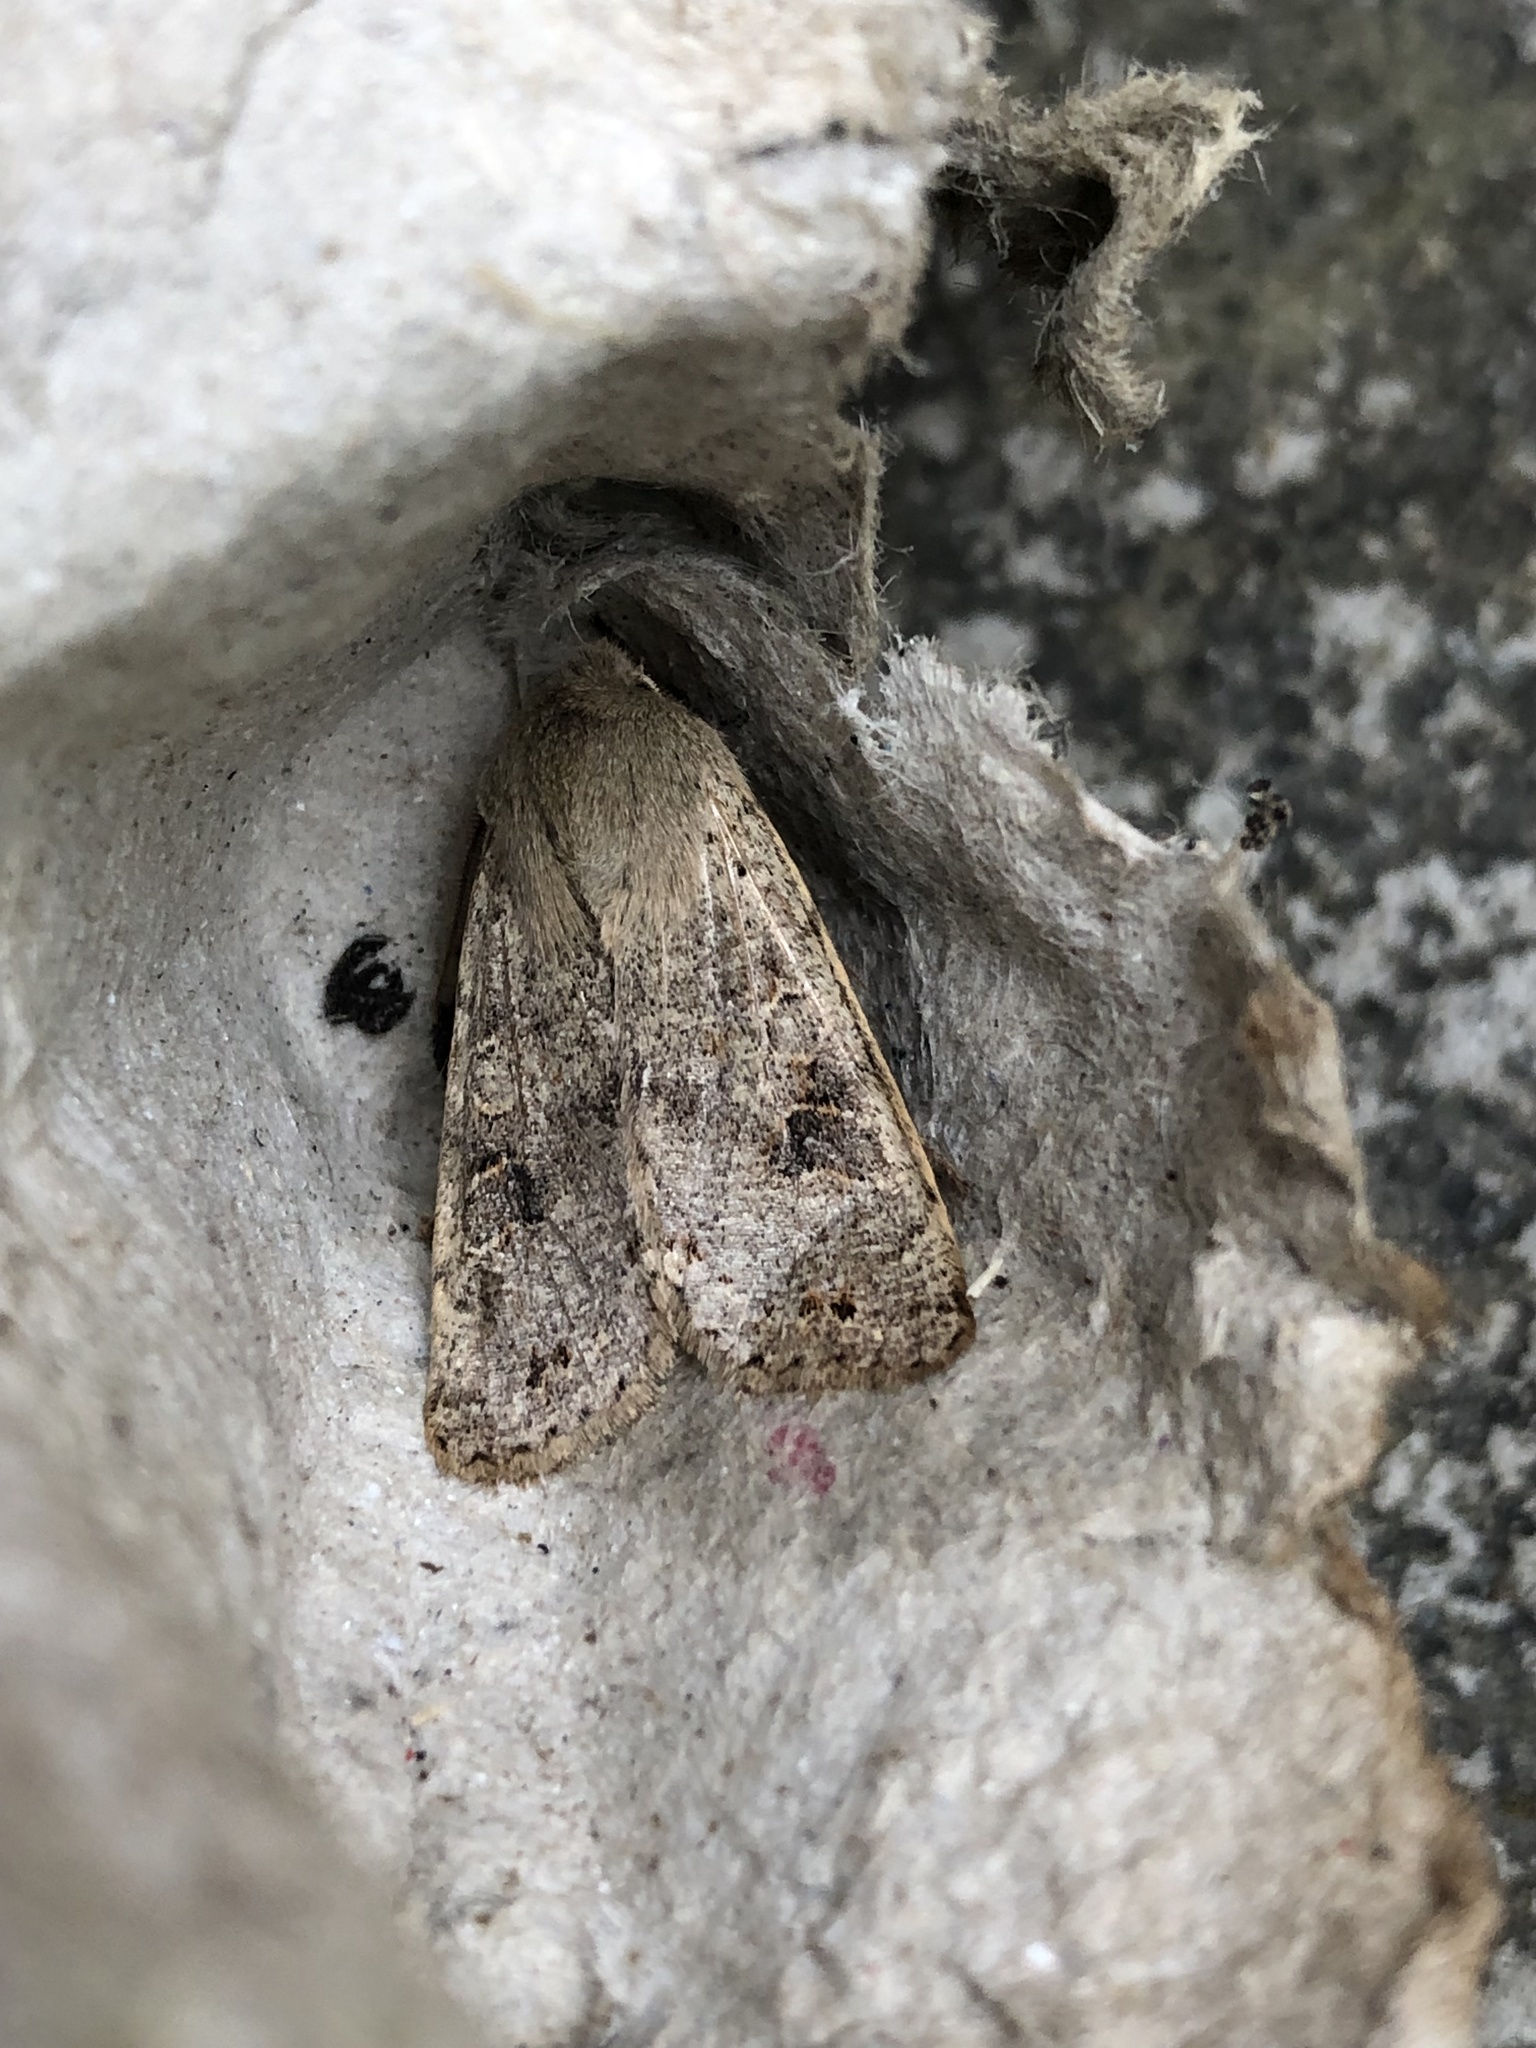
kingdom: Animalia
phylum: Arthropoda
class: Insecta
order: Lepidoptera
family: Noctuidae
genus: Anorthoa
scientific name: Anorthoa munda
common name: Twin-spotted quaker
